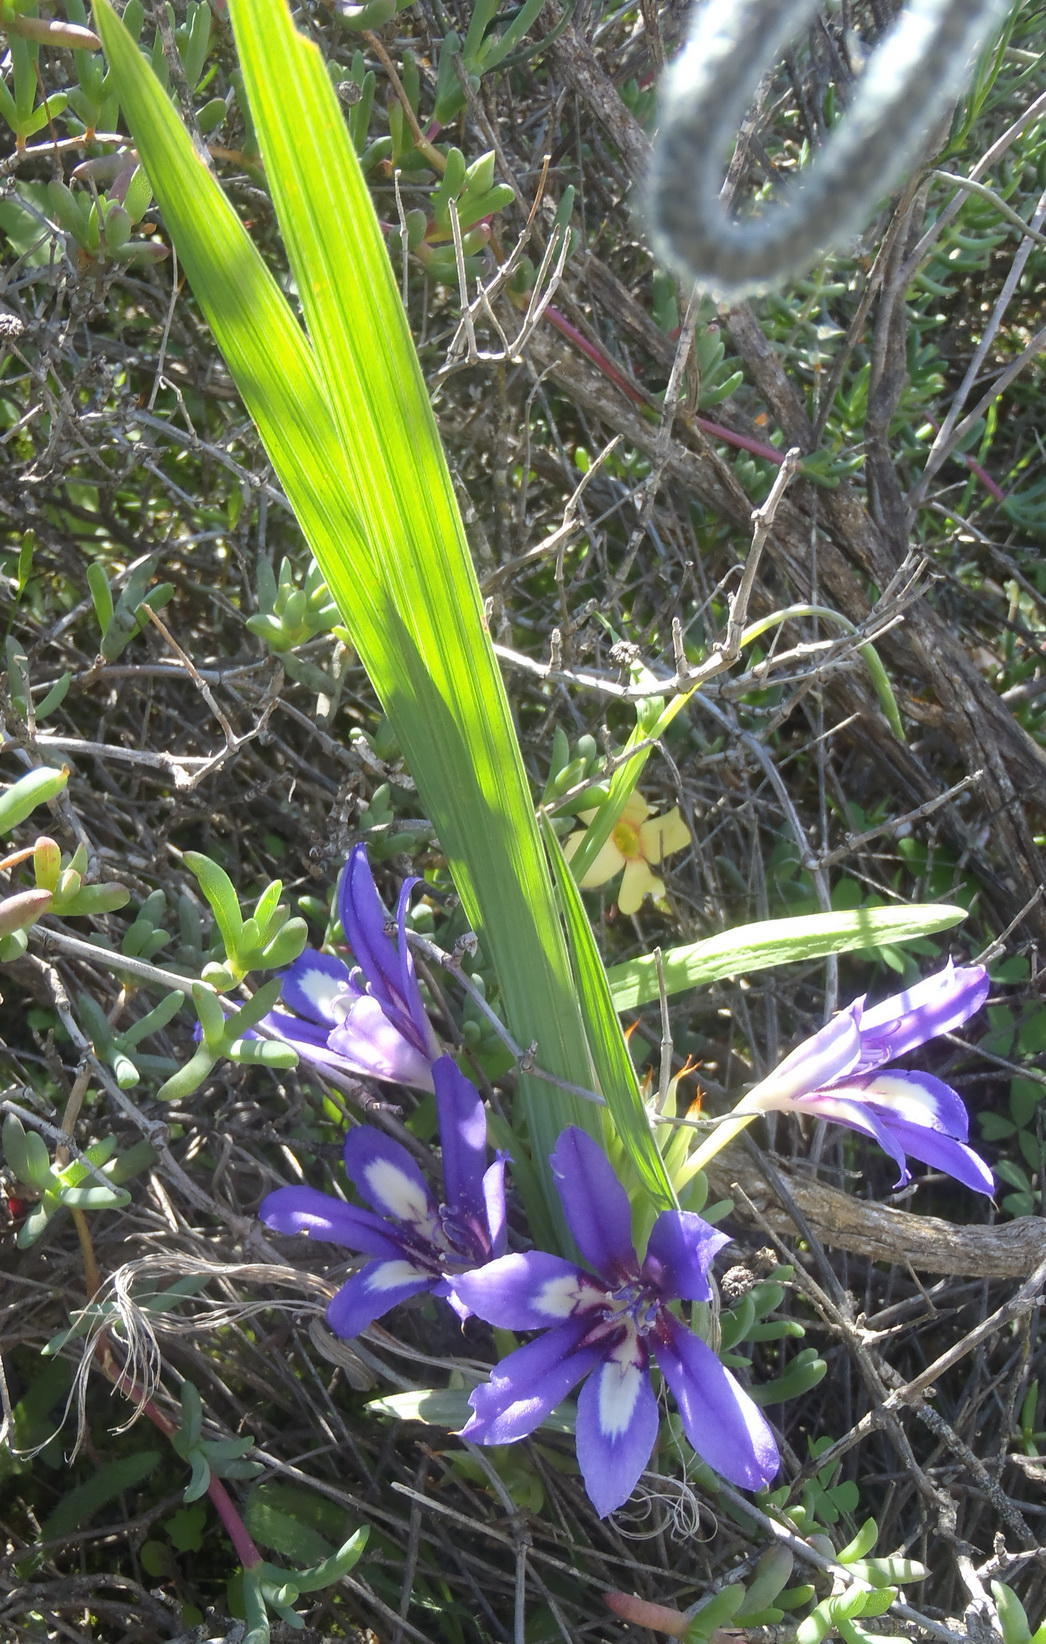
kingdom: Plantae
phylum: Tracheophyta
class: Liliopsida
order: Asparagales
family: Iridaceae
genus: Babiana
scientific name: Babiana sambucina
